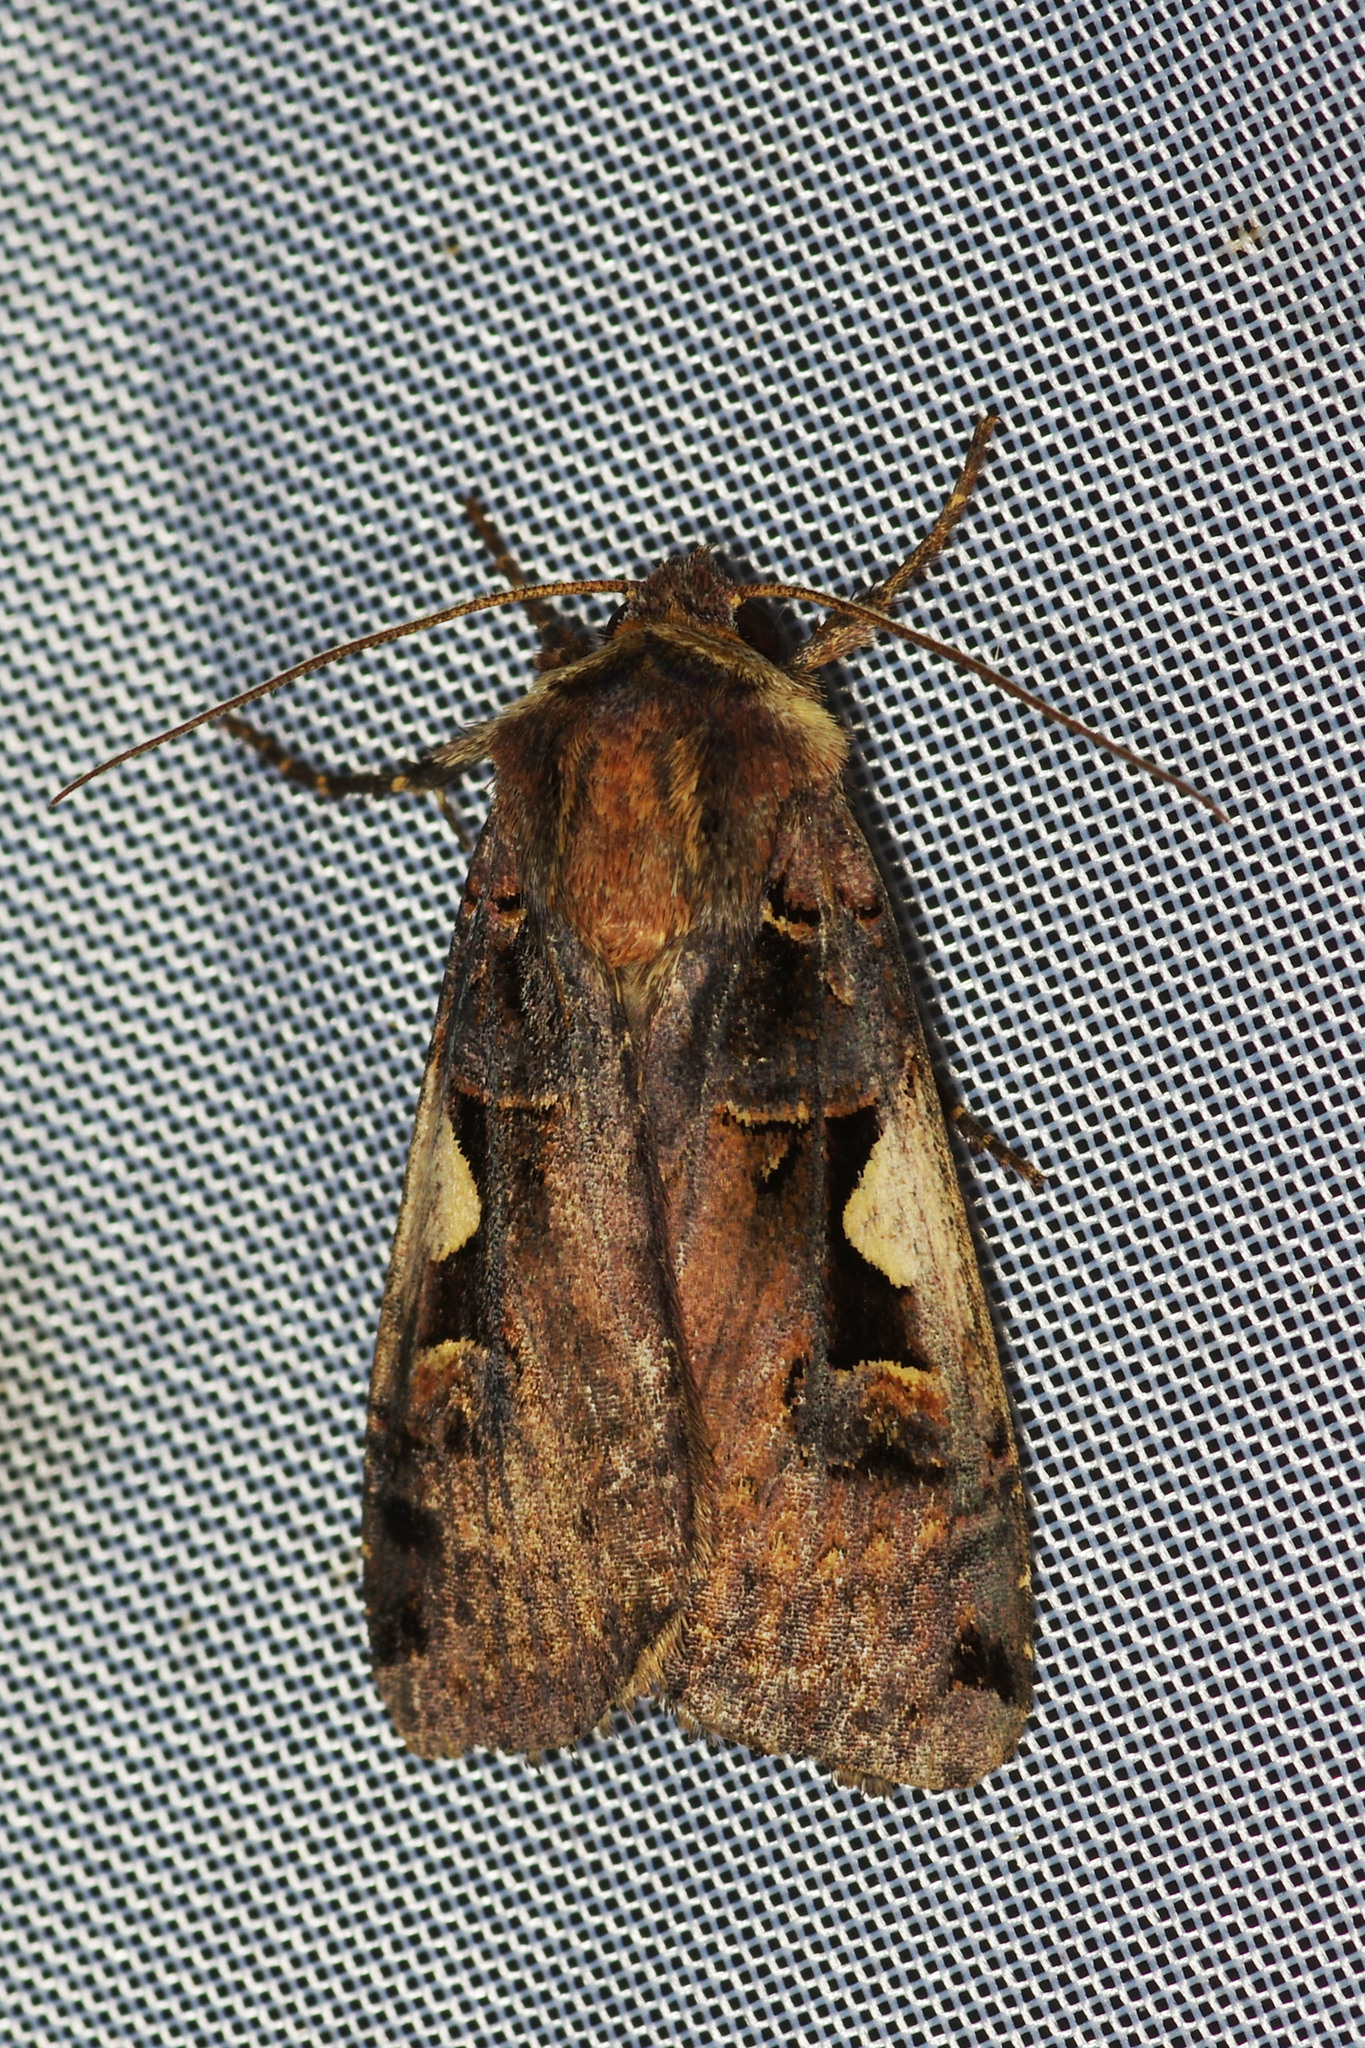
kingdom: Animalia
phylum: Arthropoda
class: Insecta
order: Lepidoptera
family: Noctuidae
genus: Xestia
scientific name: Xestia c-nigrum
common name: Setaceous hebrew character
